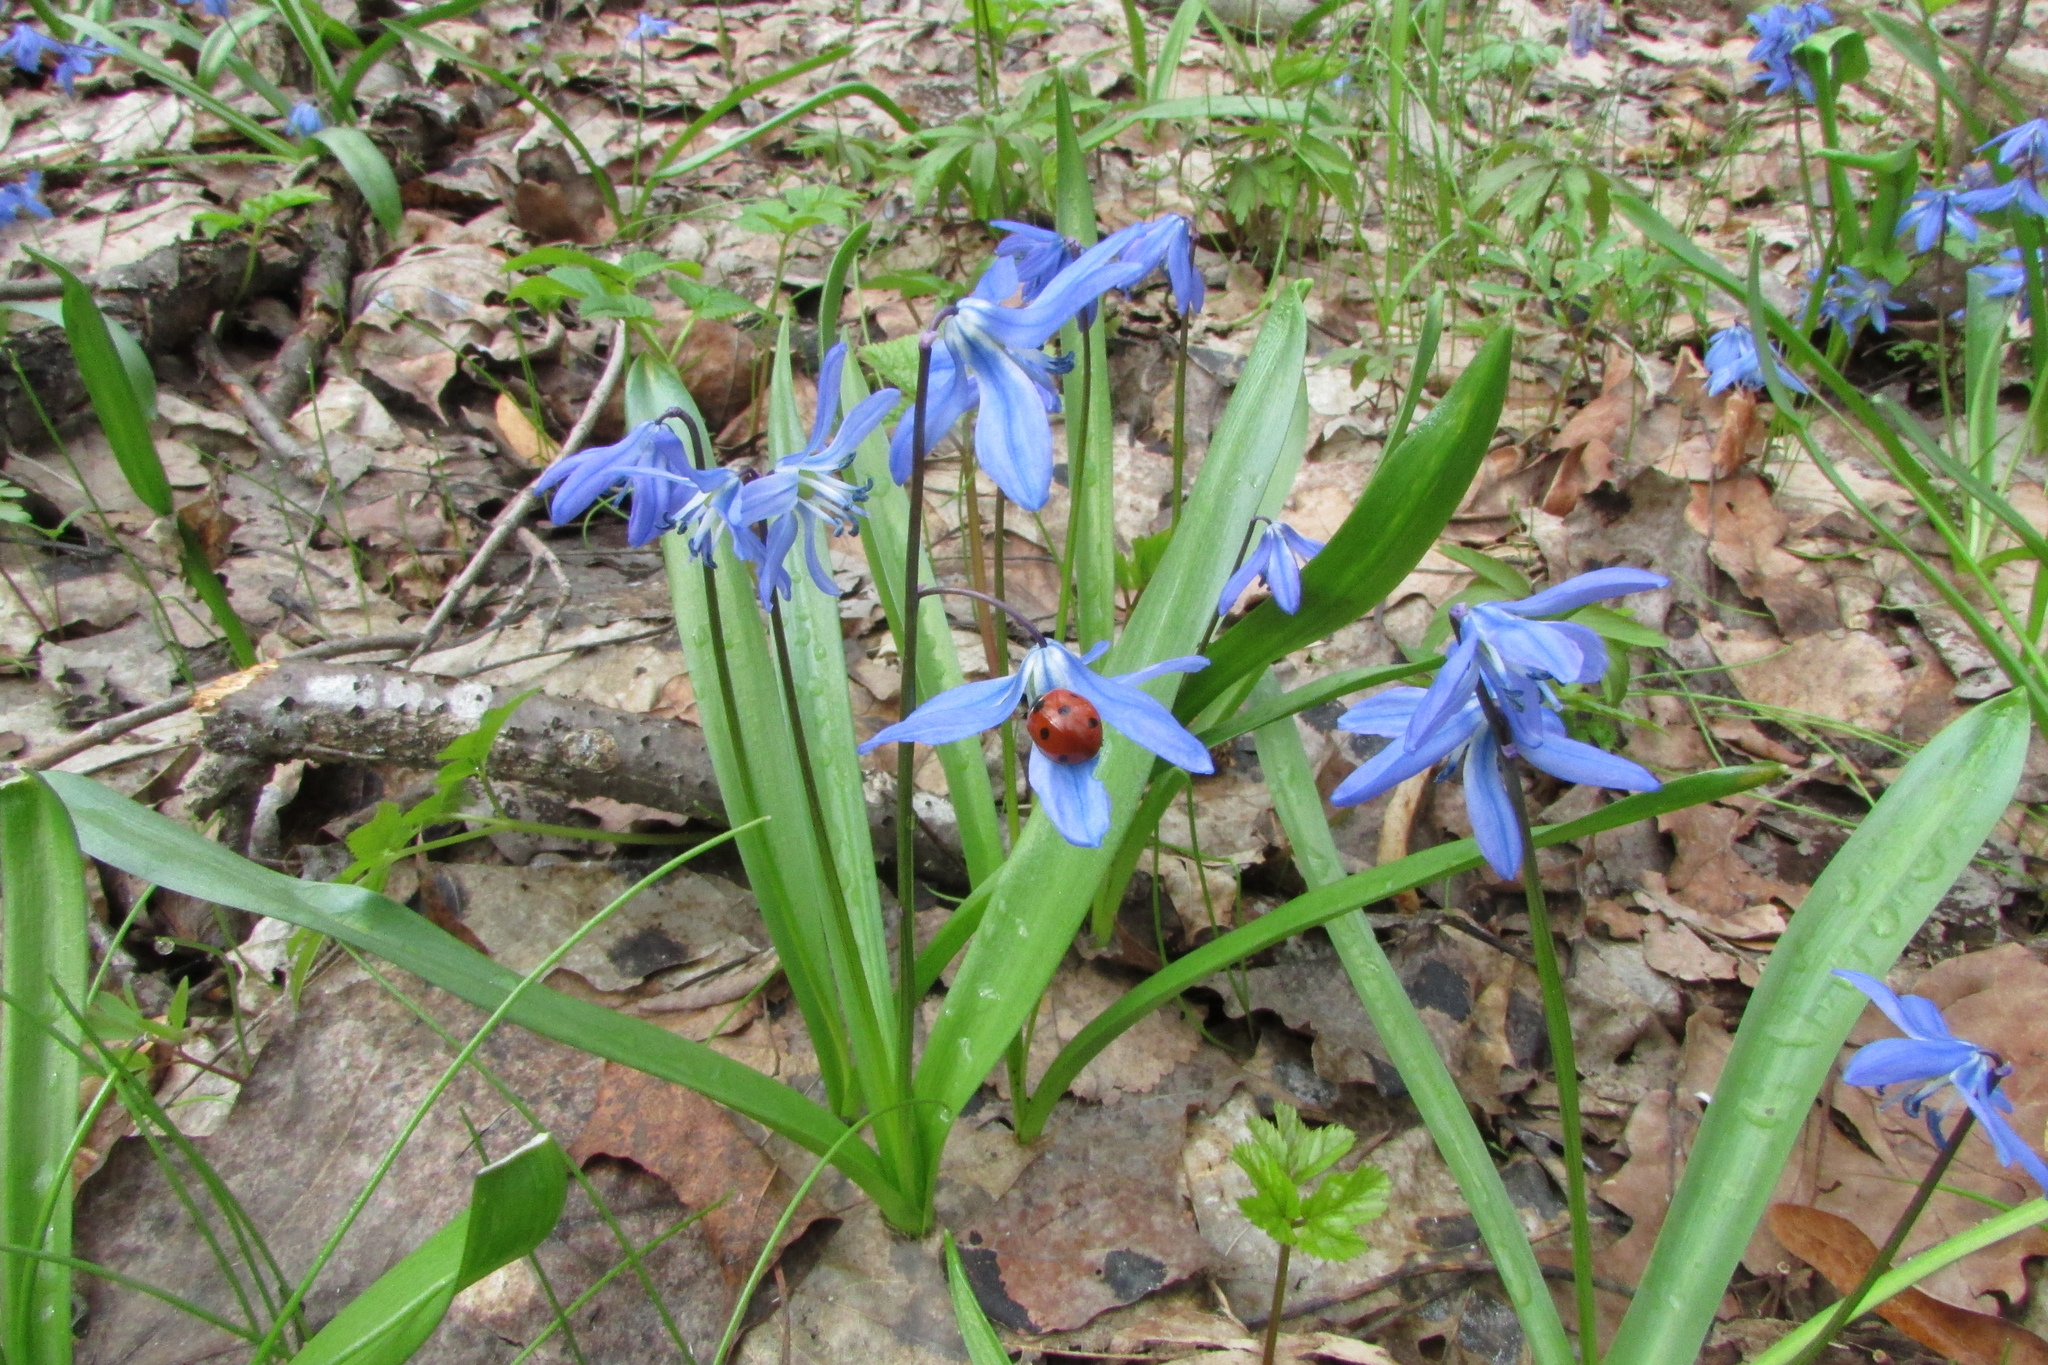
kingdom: Plantae
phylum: Tracheophyta
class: Liliopsida
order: Asparagales
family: Asparagaceae
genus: Scilla
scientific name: Scilla siberica
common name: Siberian squill
